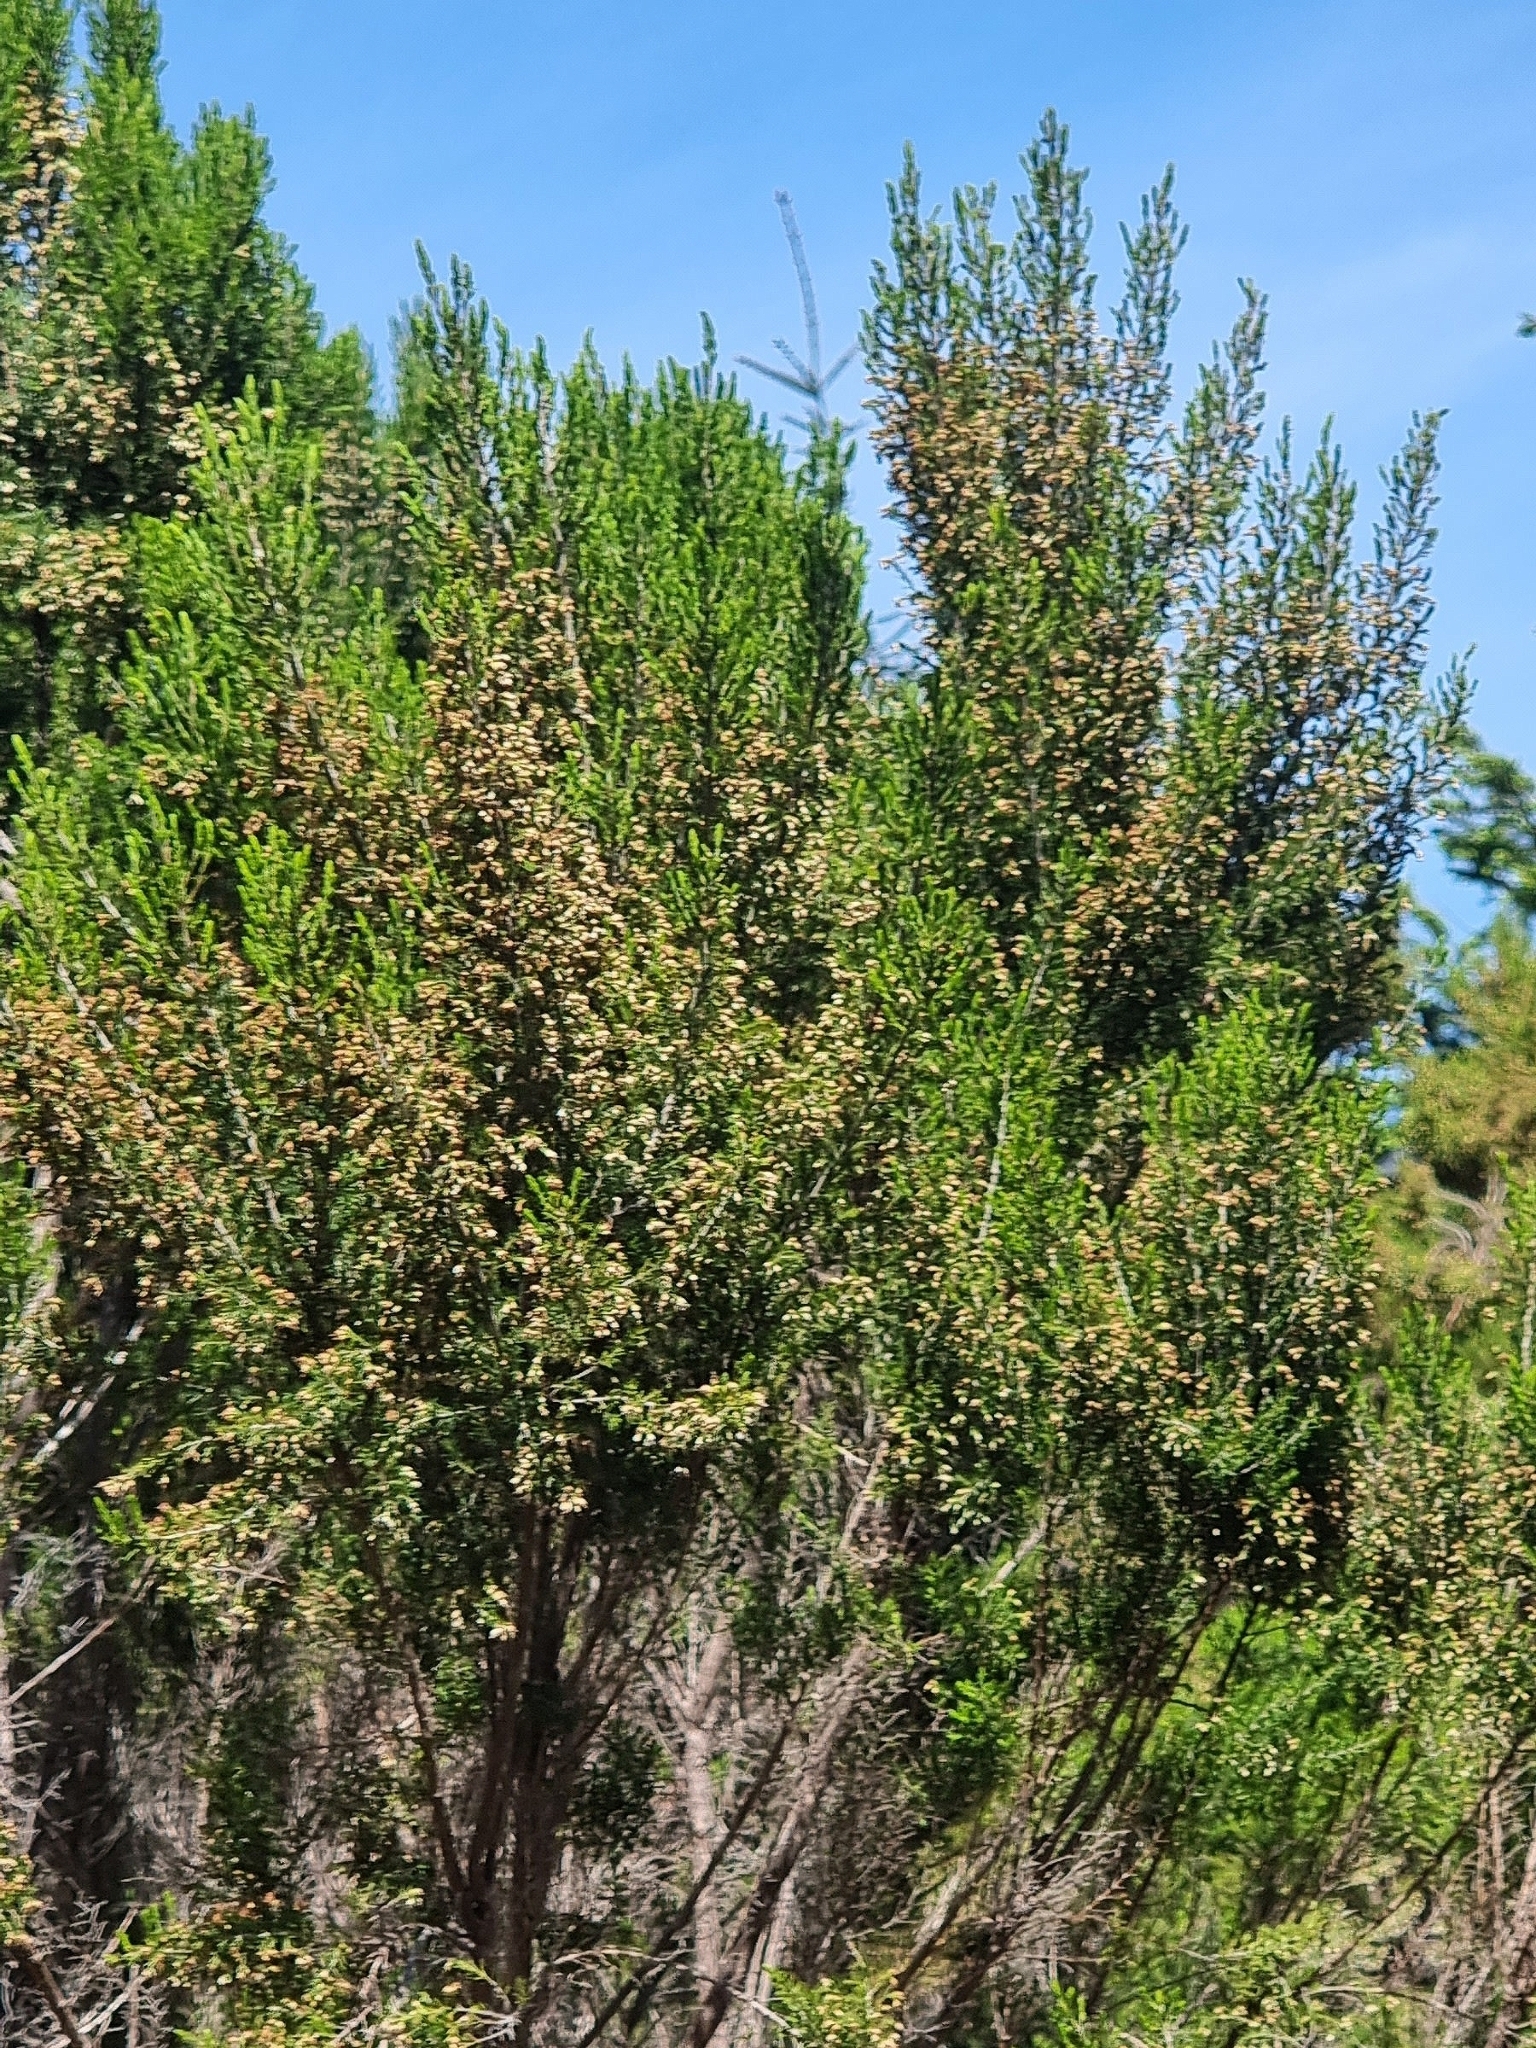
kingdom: Plantae
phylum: Tracheophyta
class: Magnoliopsida
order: Ericales
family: Ericaceae
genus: Erica
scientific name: Erica canariensis
